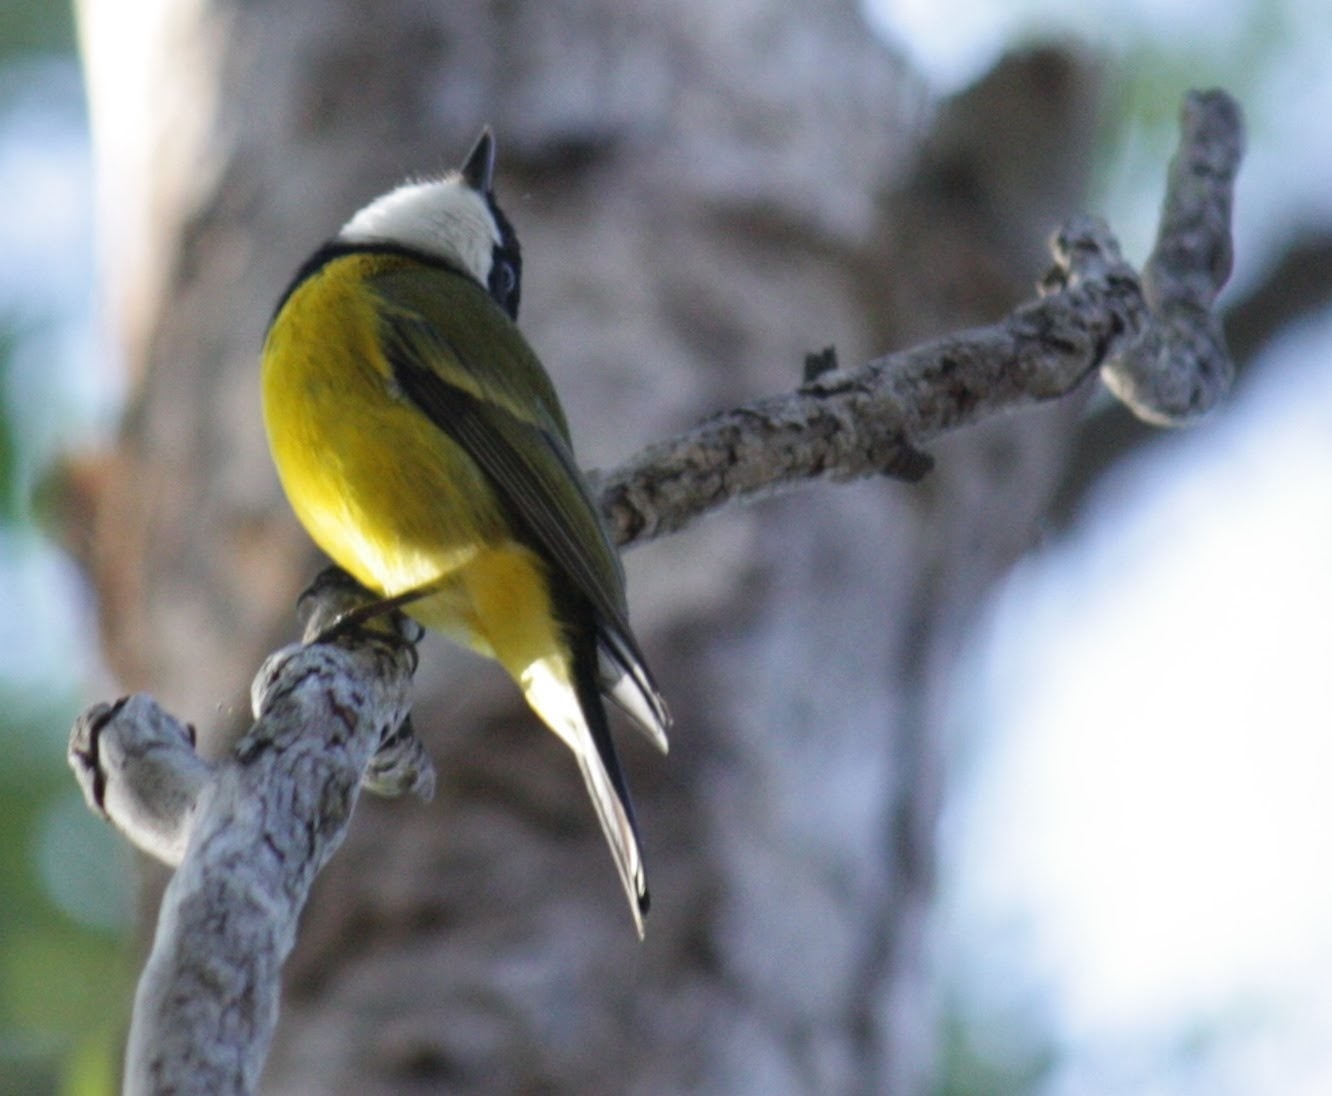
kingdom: Animalia
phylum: Chordata
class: Aves
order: Passeriformes
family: Pachycephalidae
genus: Pachycephala
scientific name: Pachycephala pectoralis
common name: Australian golden whistler
